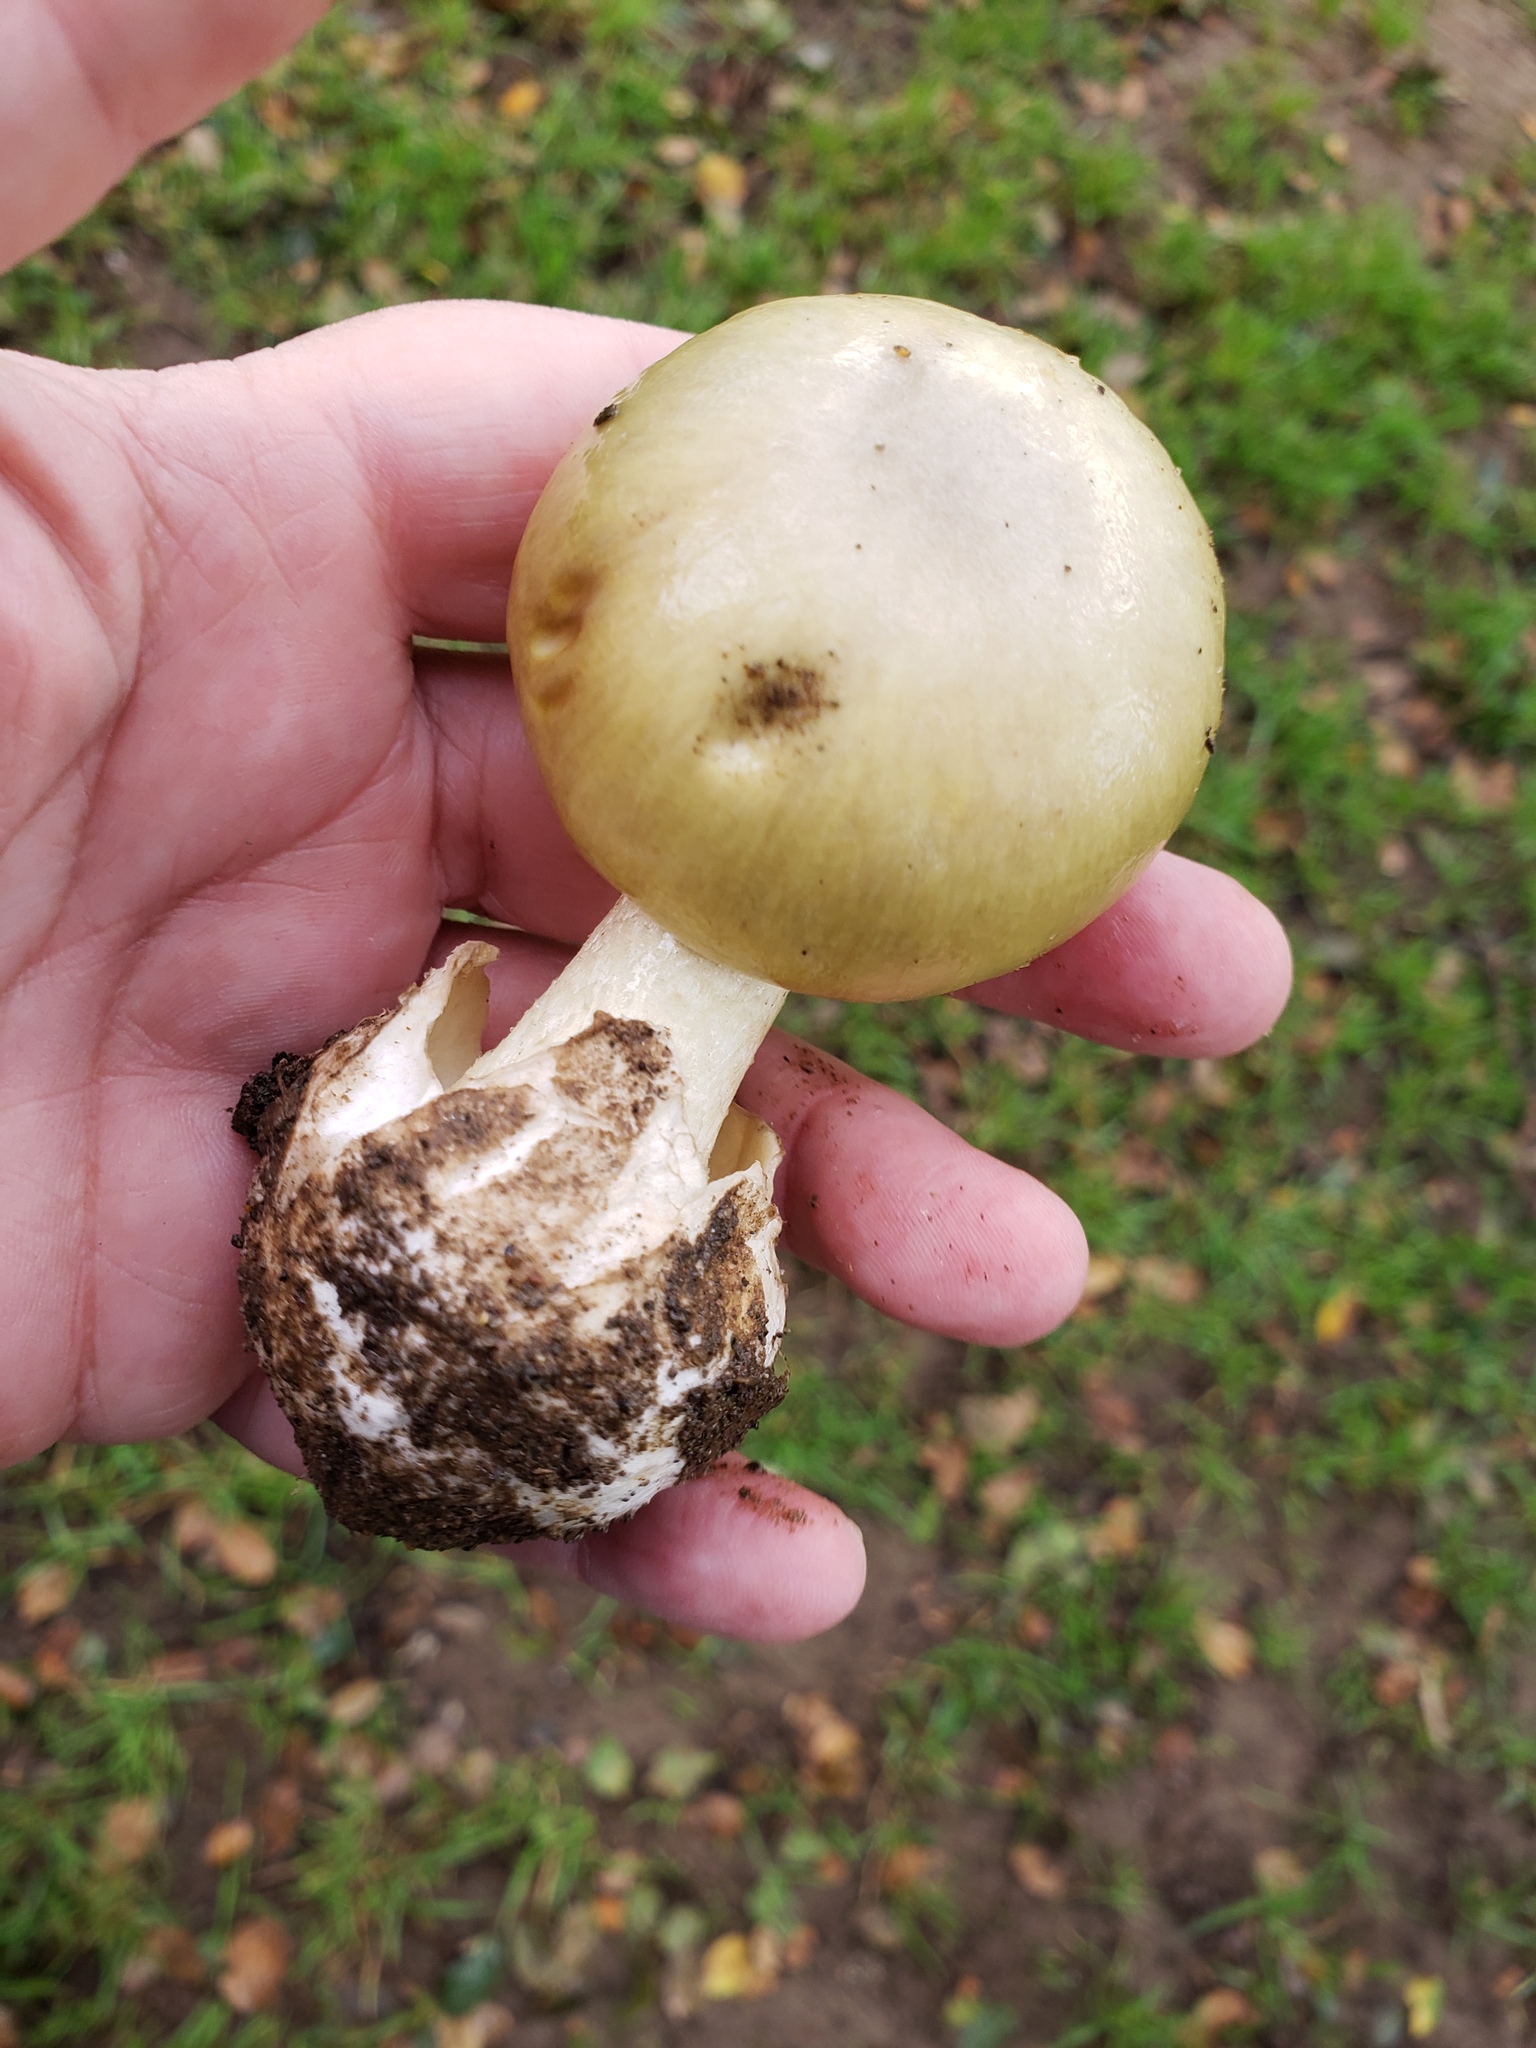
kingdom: Fungi
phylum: Basidiomycota
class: Agaricomycetes
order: Agaricales
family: Amanitaceae
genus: Amanita
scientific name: Amanita phalloides
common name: Death cap
